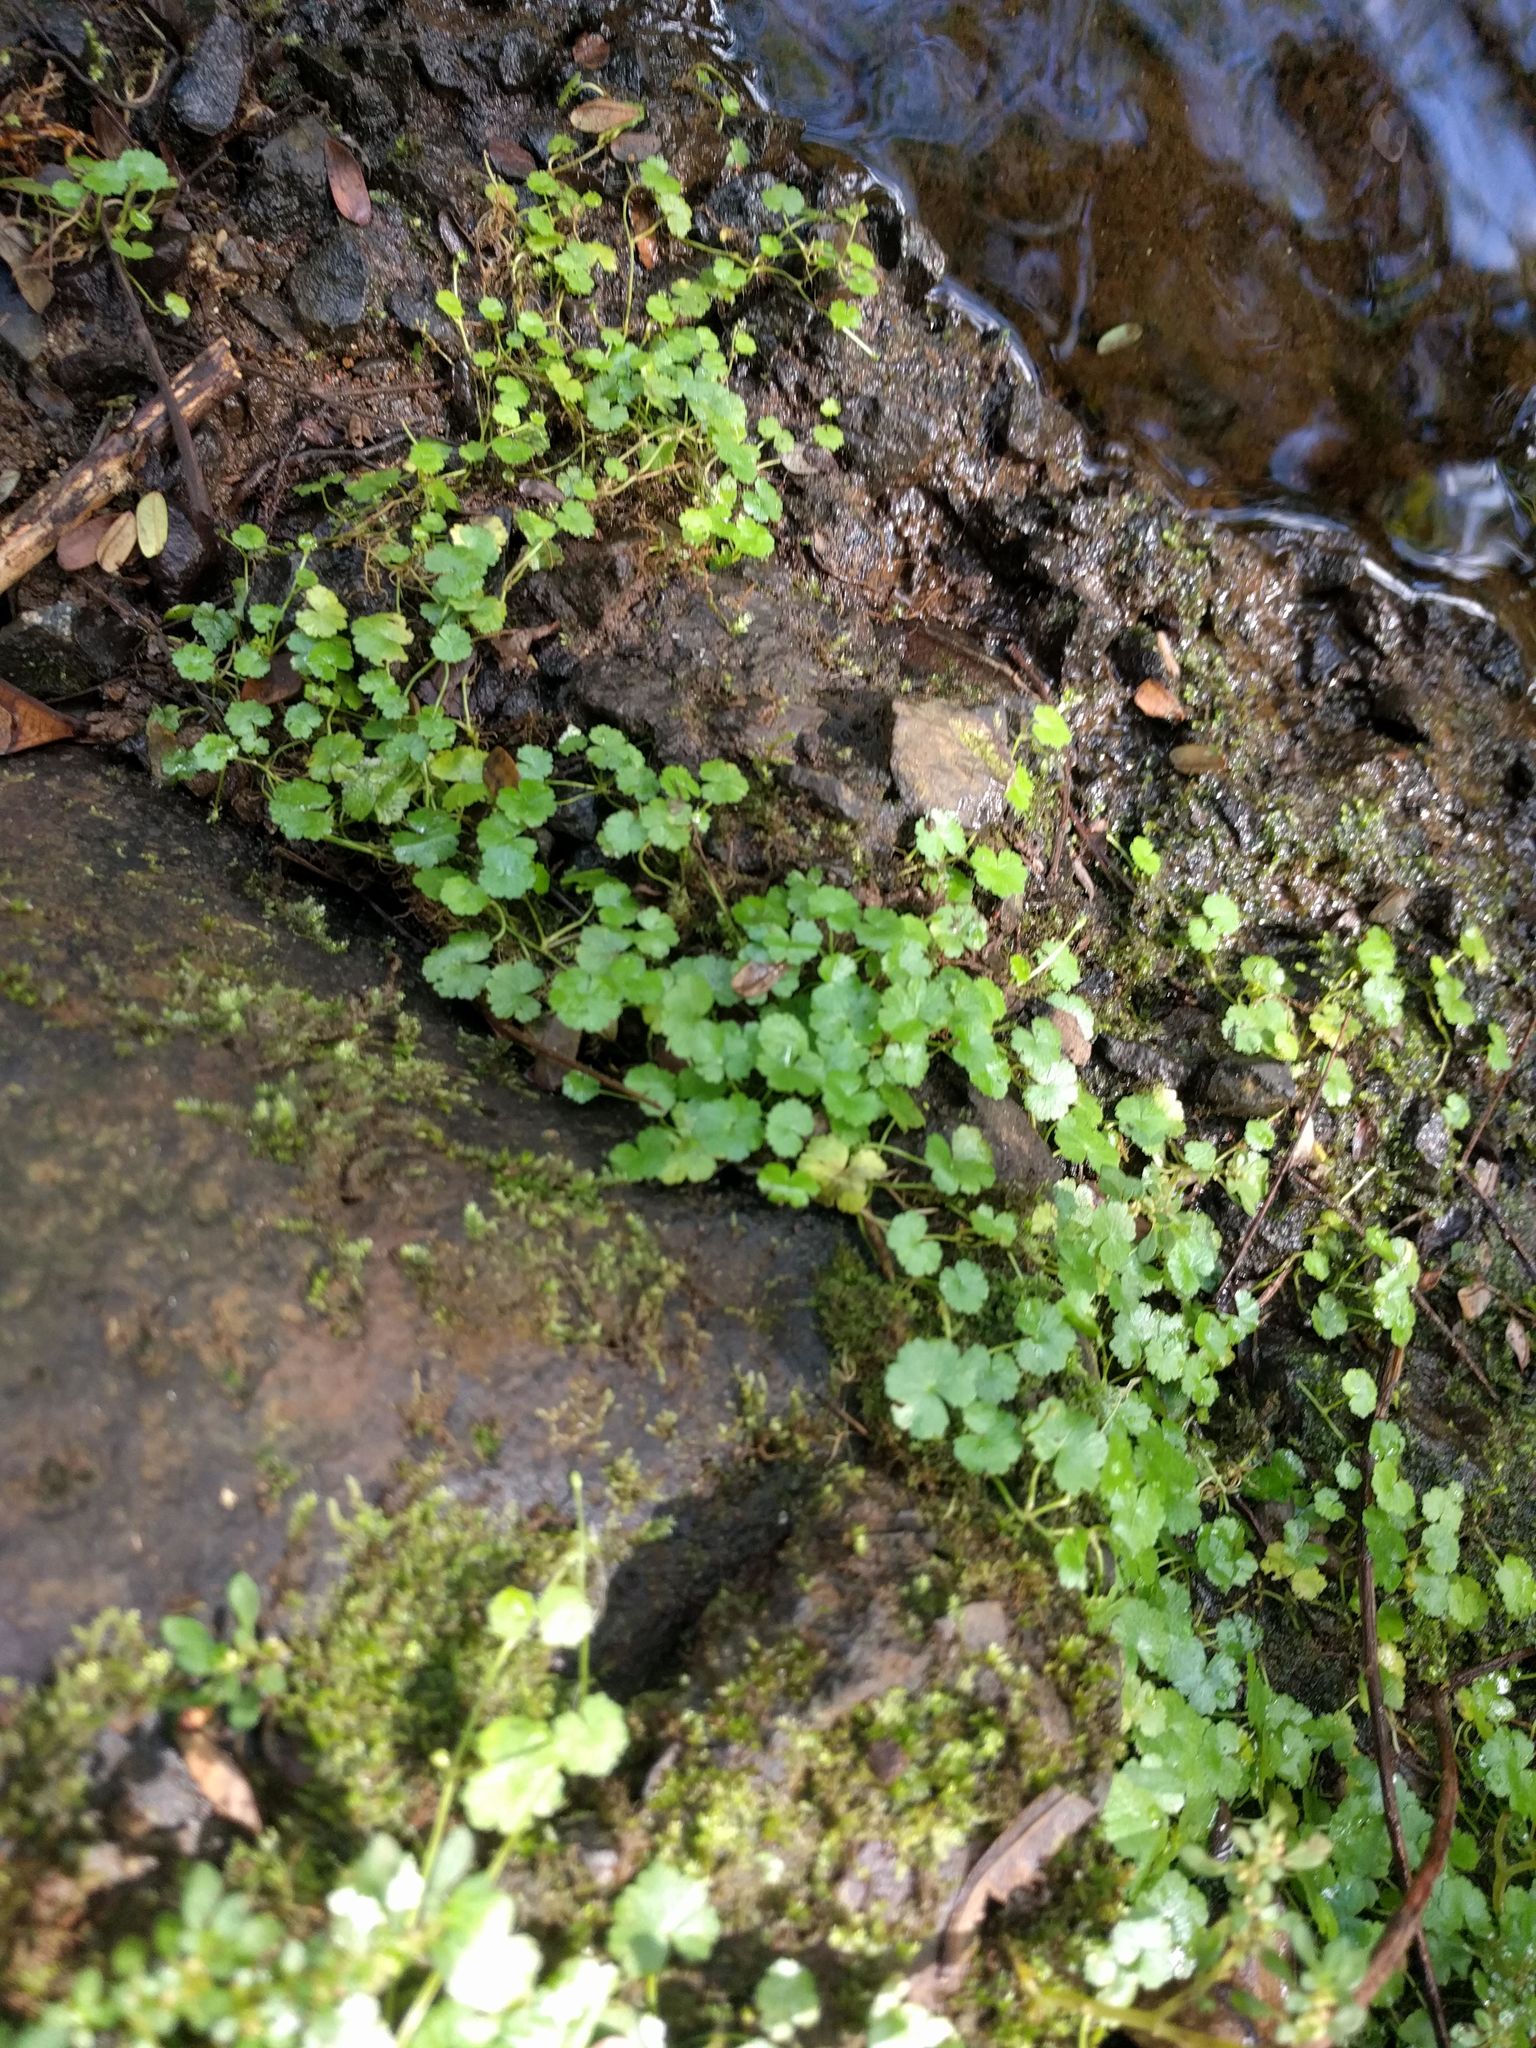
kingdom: Plantae
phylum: Tracheophyta
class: Magnoliopsida
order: Apiales
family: Araliaceae
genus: Hydrocotyle
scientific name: Hydrocotyle sibthorpioides
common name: Lawn marshpennywort
